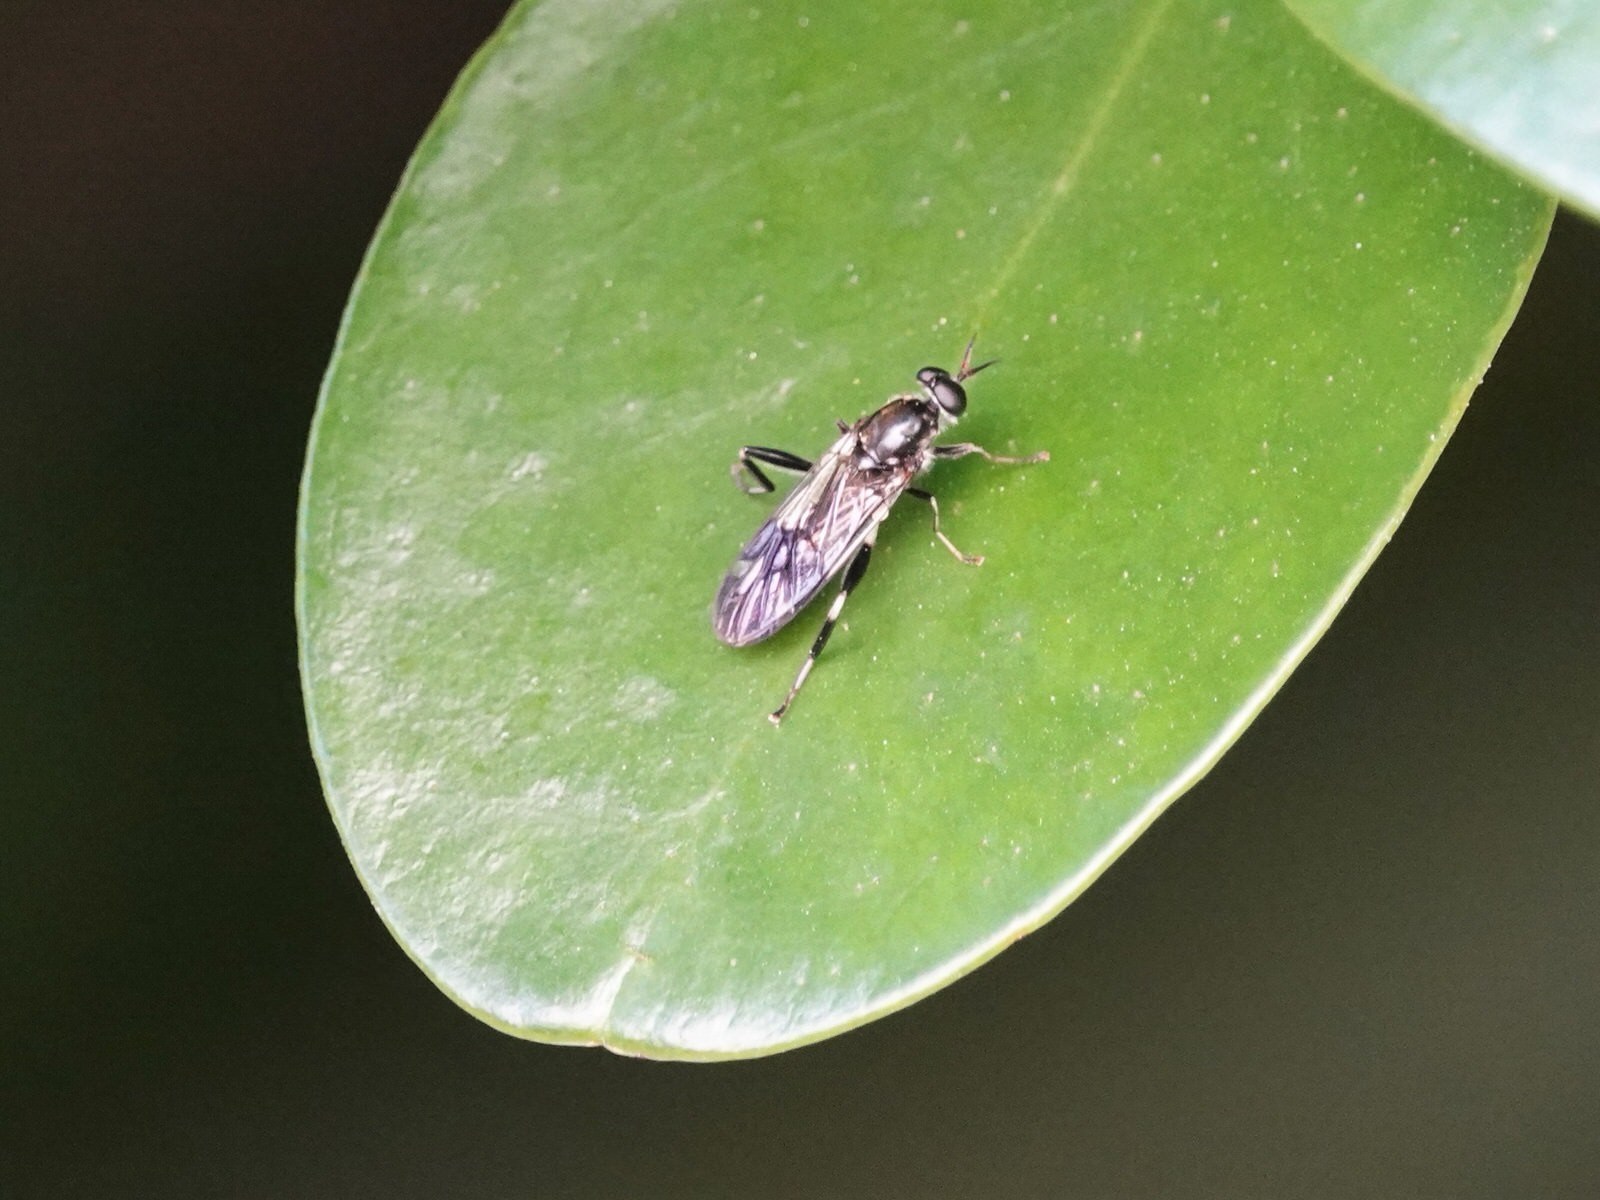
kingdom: Animalia
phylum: Arthropoda
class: Insecta
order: Diptera
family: Stratiomyidae
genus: Exaireta
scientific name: Exaireta spinigera
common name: Blue soldier fly
